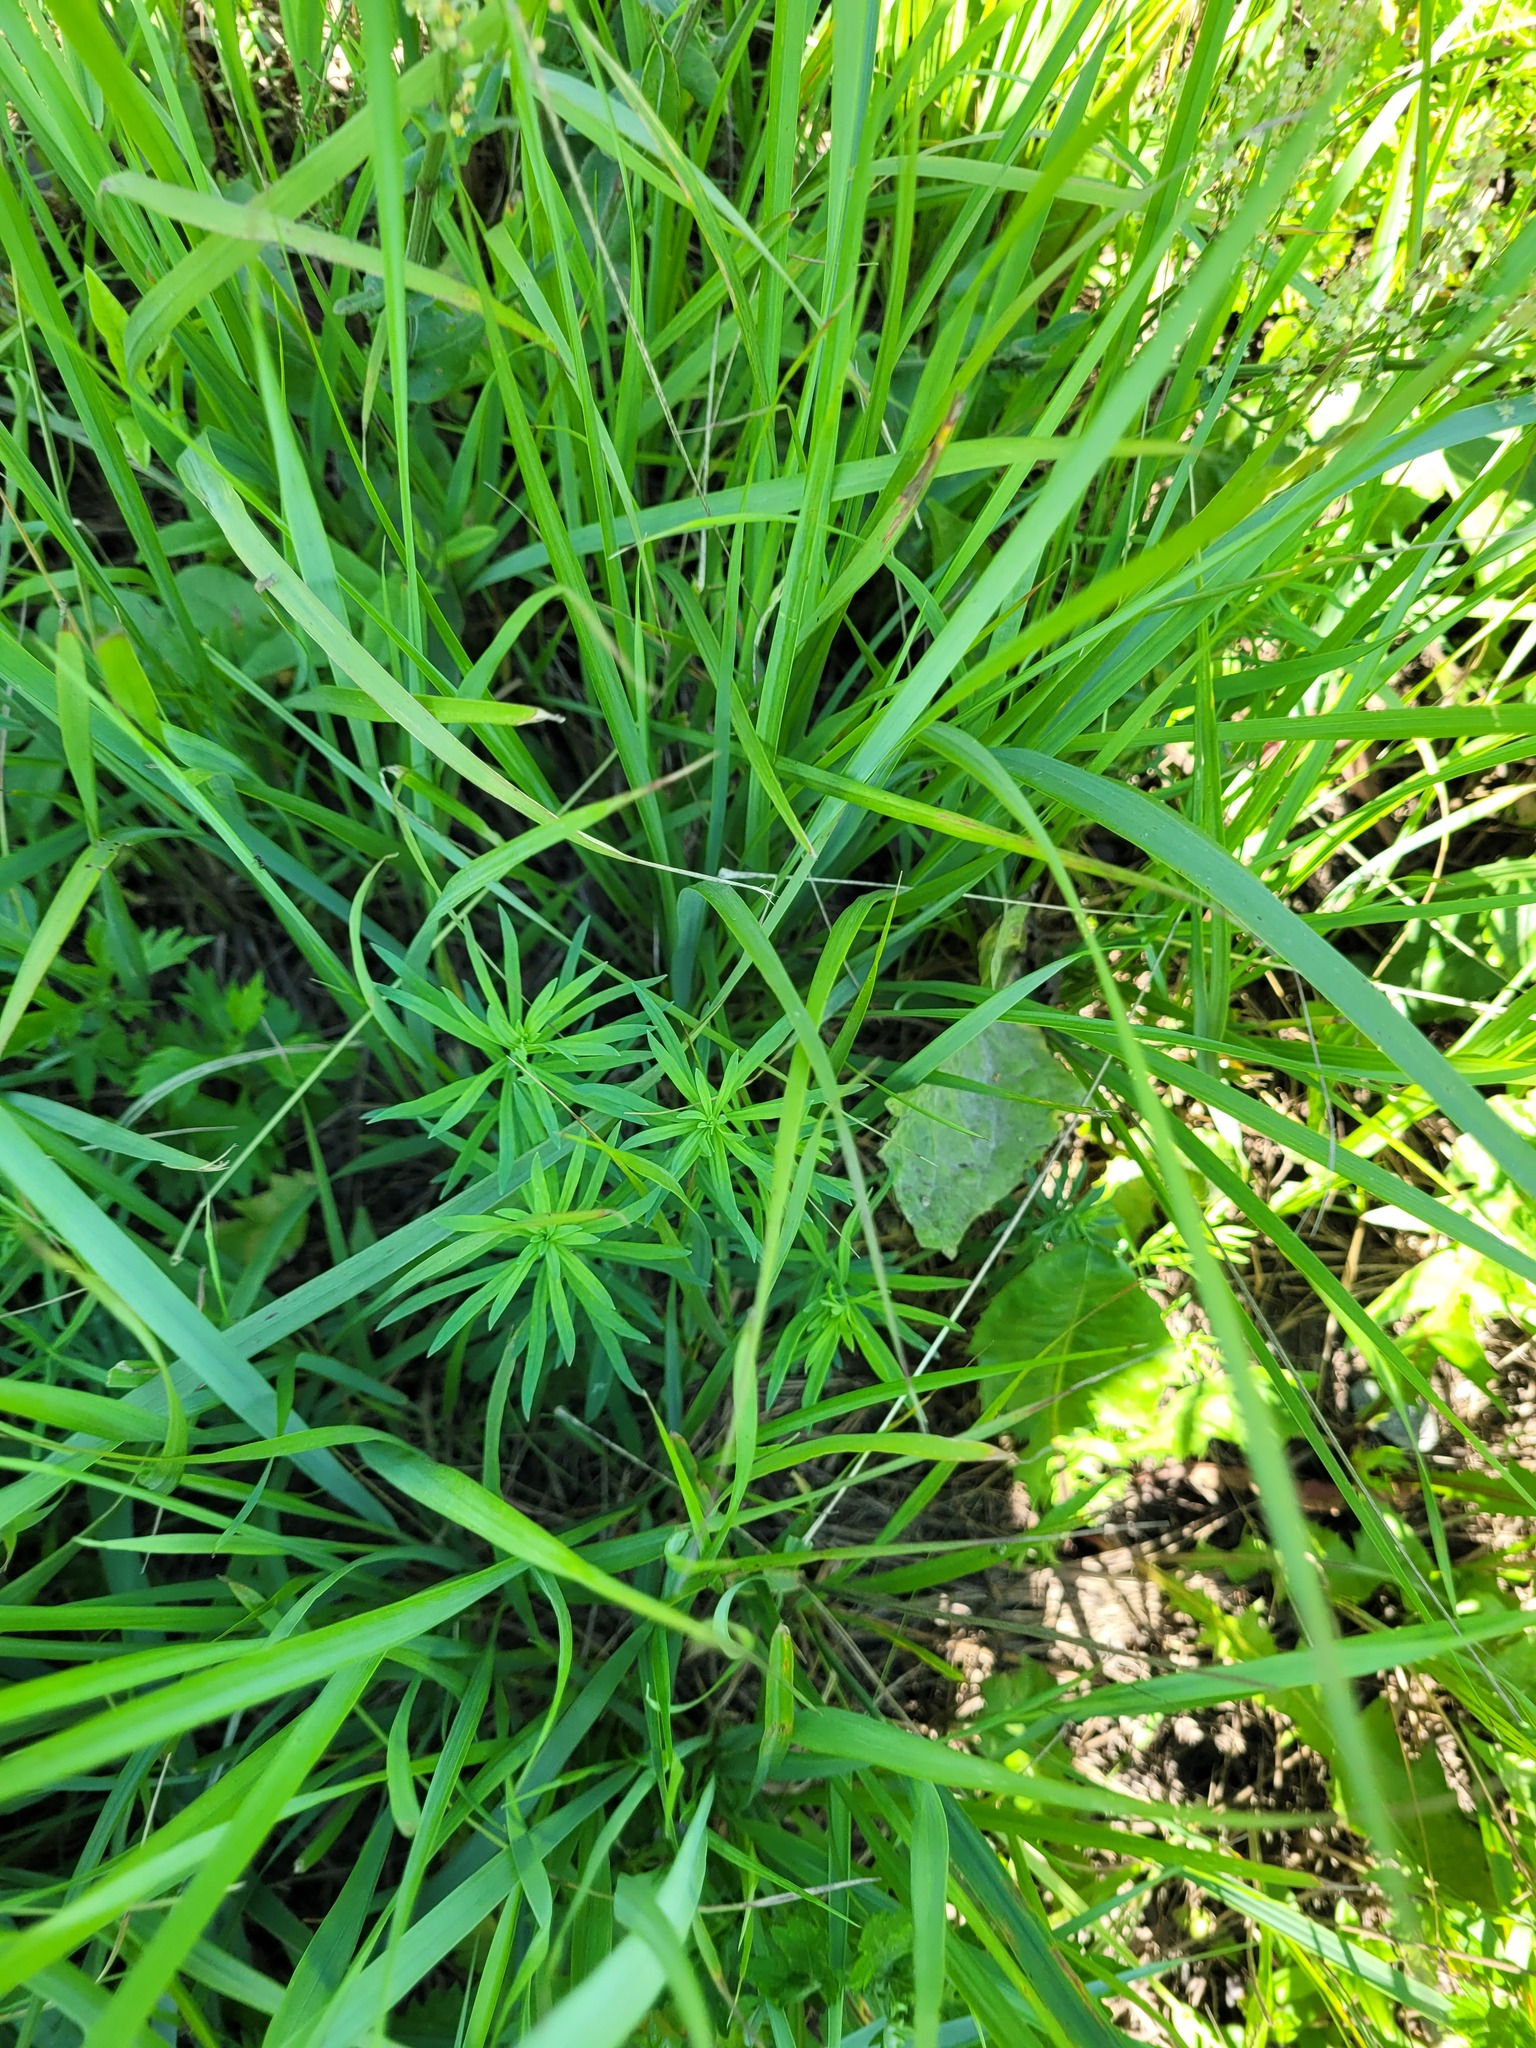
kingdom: Plantae
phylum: Tracheophyta
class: Magnoliopsida
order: Lamiales
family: Plantaginaceae
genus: Linaria
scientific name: Linaria vulgaris
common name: Butter and eggs
